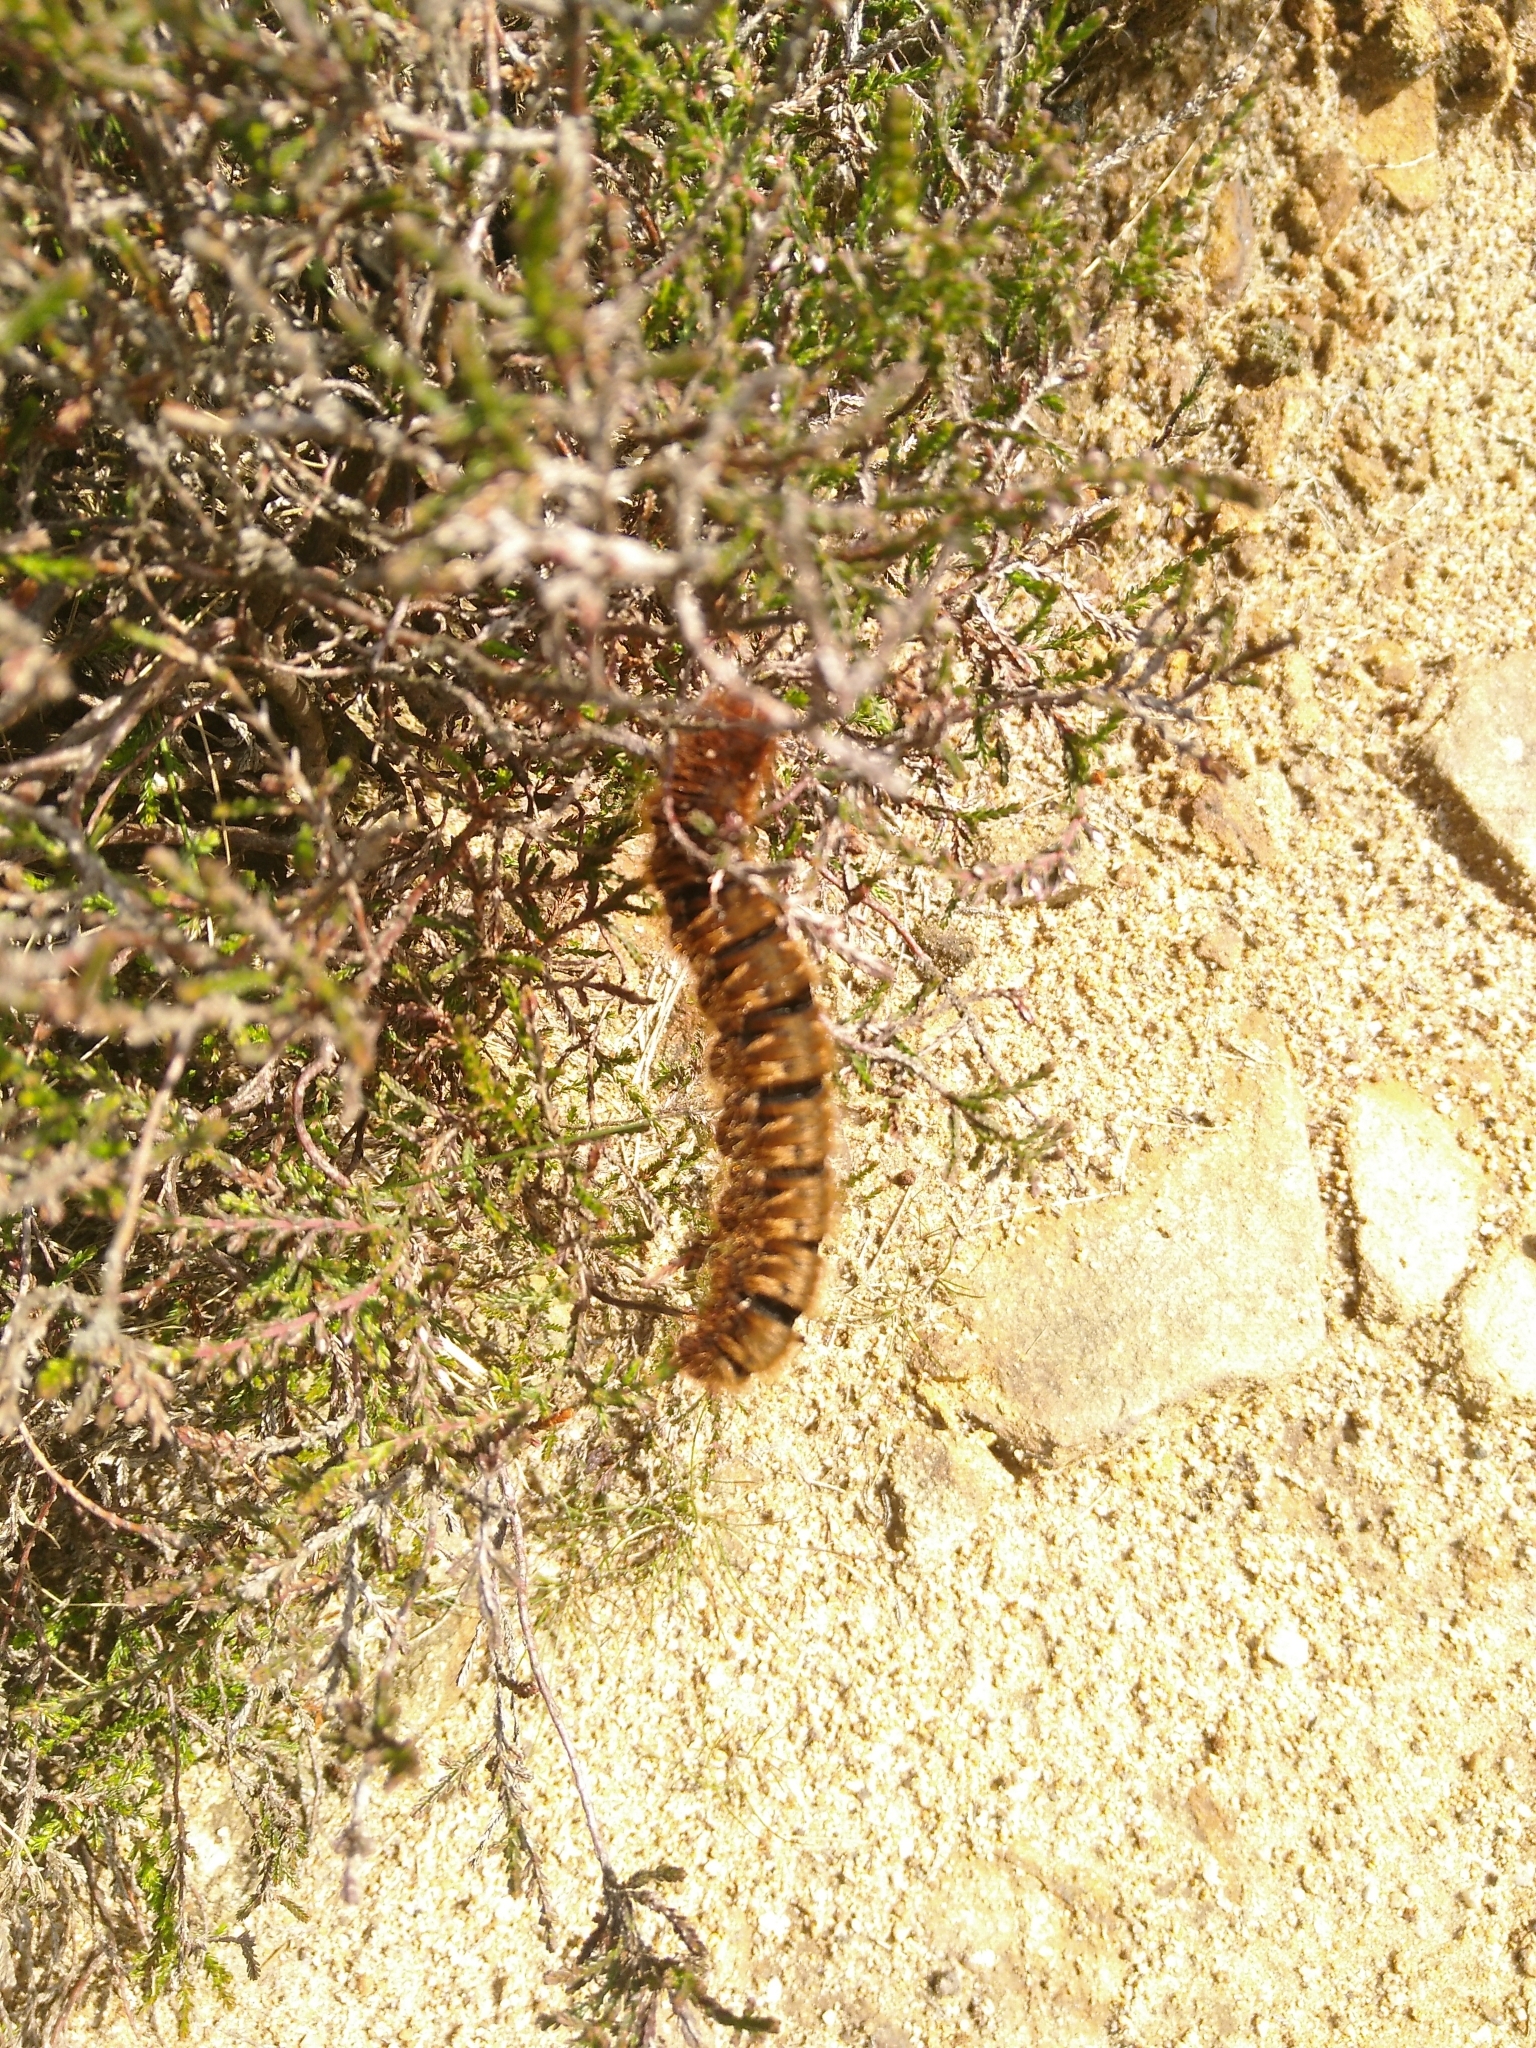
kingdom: Animalia
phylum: Arthropoda
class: Insecta
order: Lepidoptera
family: Lasiocampidae
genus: Lasiocampa
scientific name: Lasiocampa quercus
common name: Oak eggar
